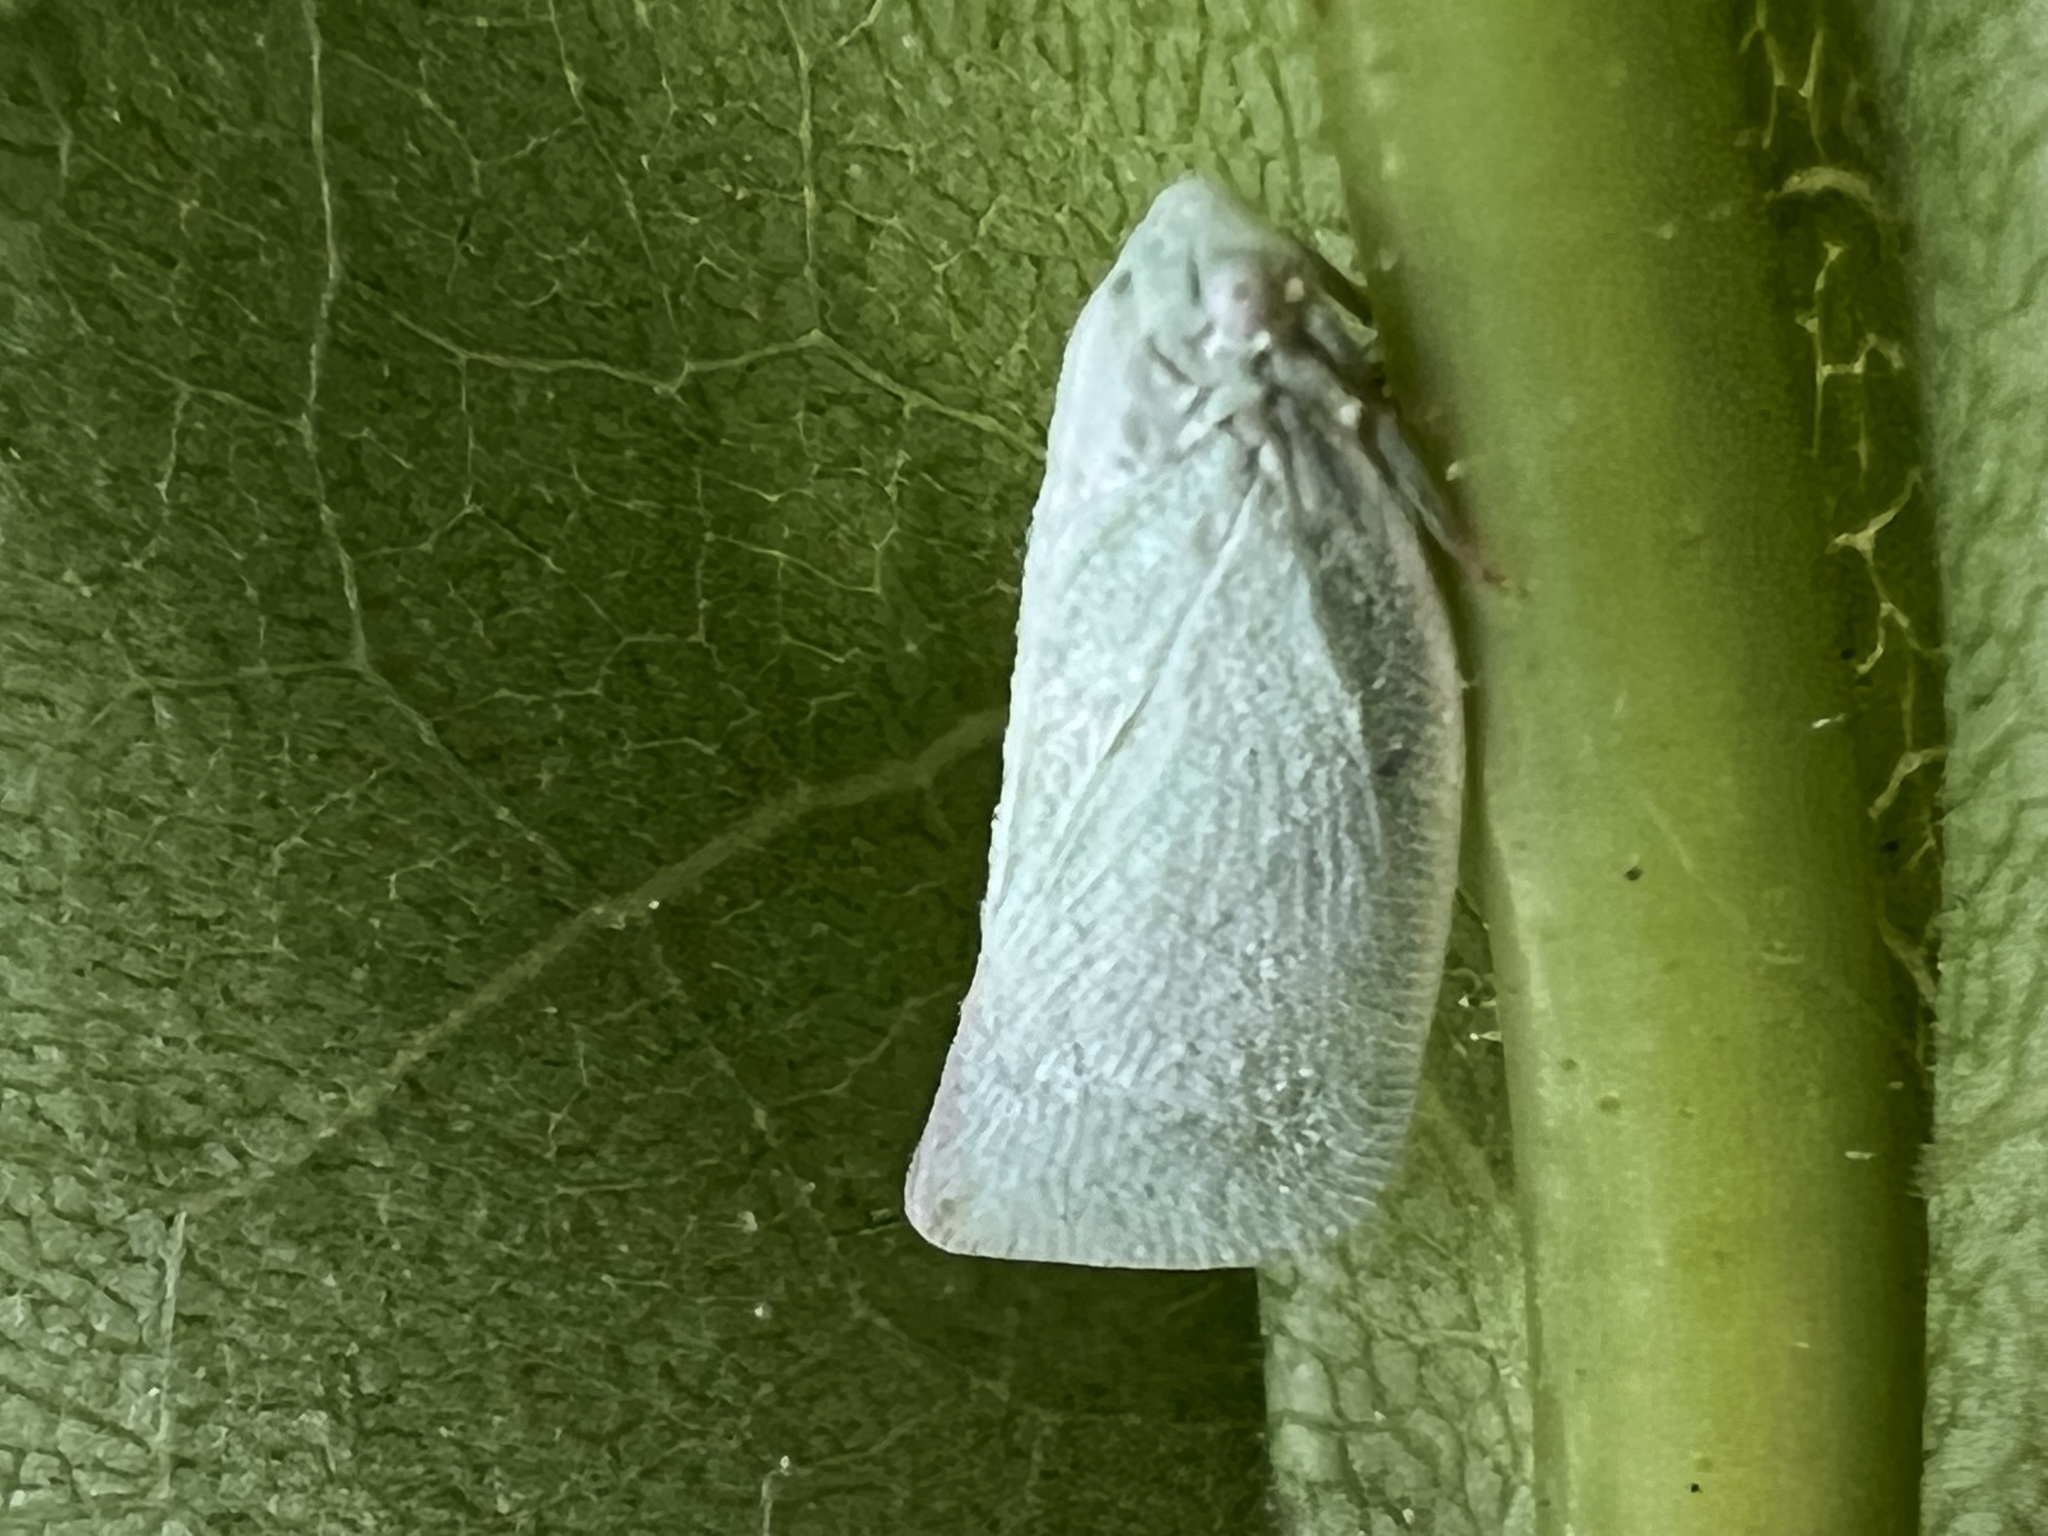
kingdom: Animalia
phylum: Arthropoda
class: Insecta
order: Hemiptera
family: Flatidae
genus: Flatormenis
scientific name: Flatormenis proxima
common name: Northern flatid planthopper
